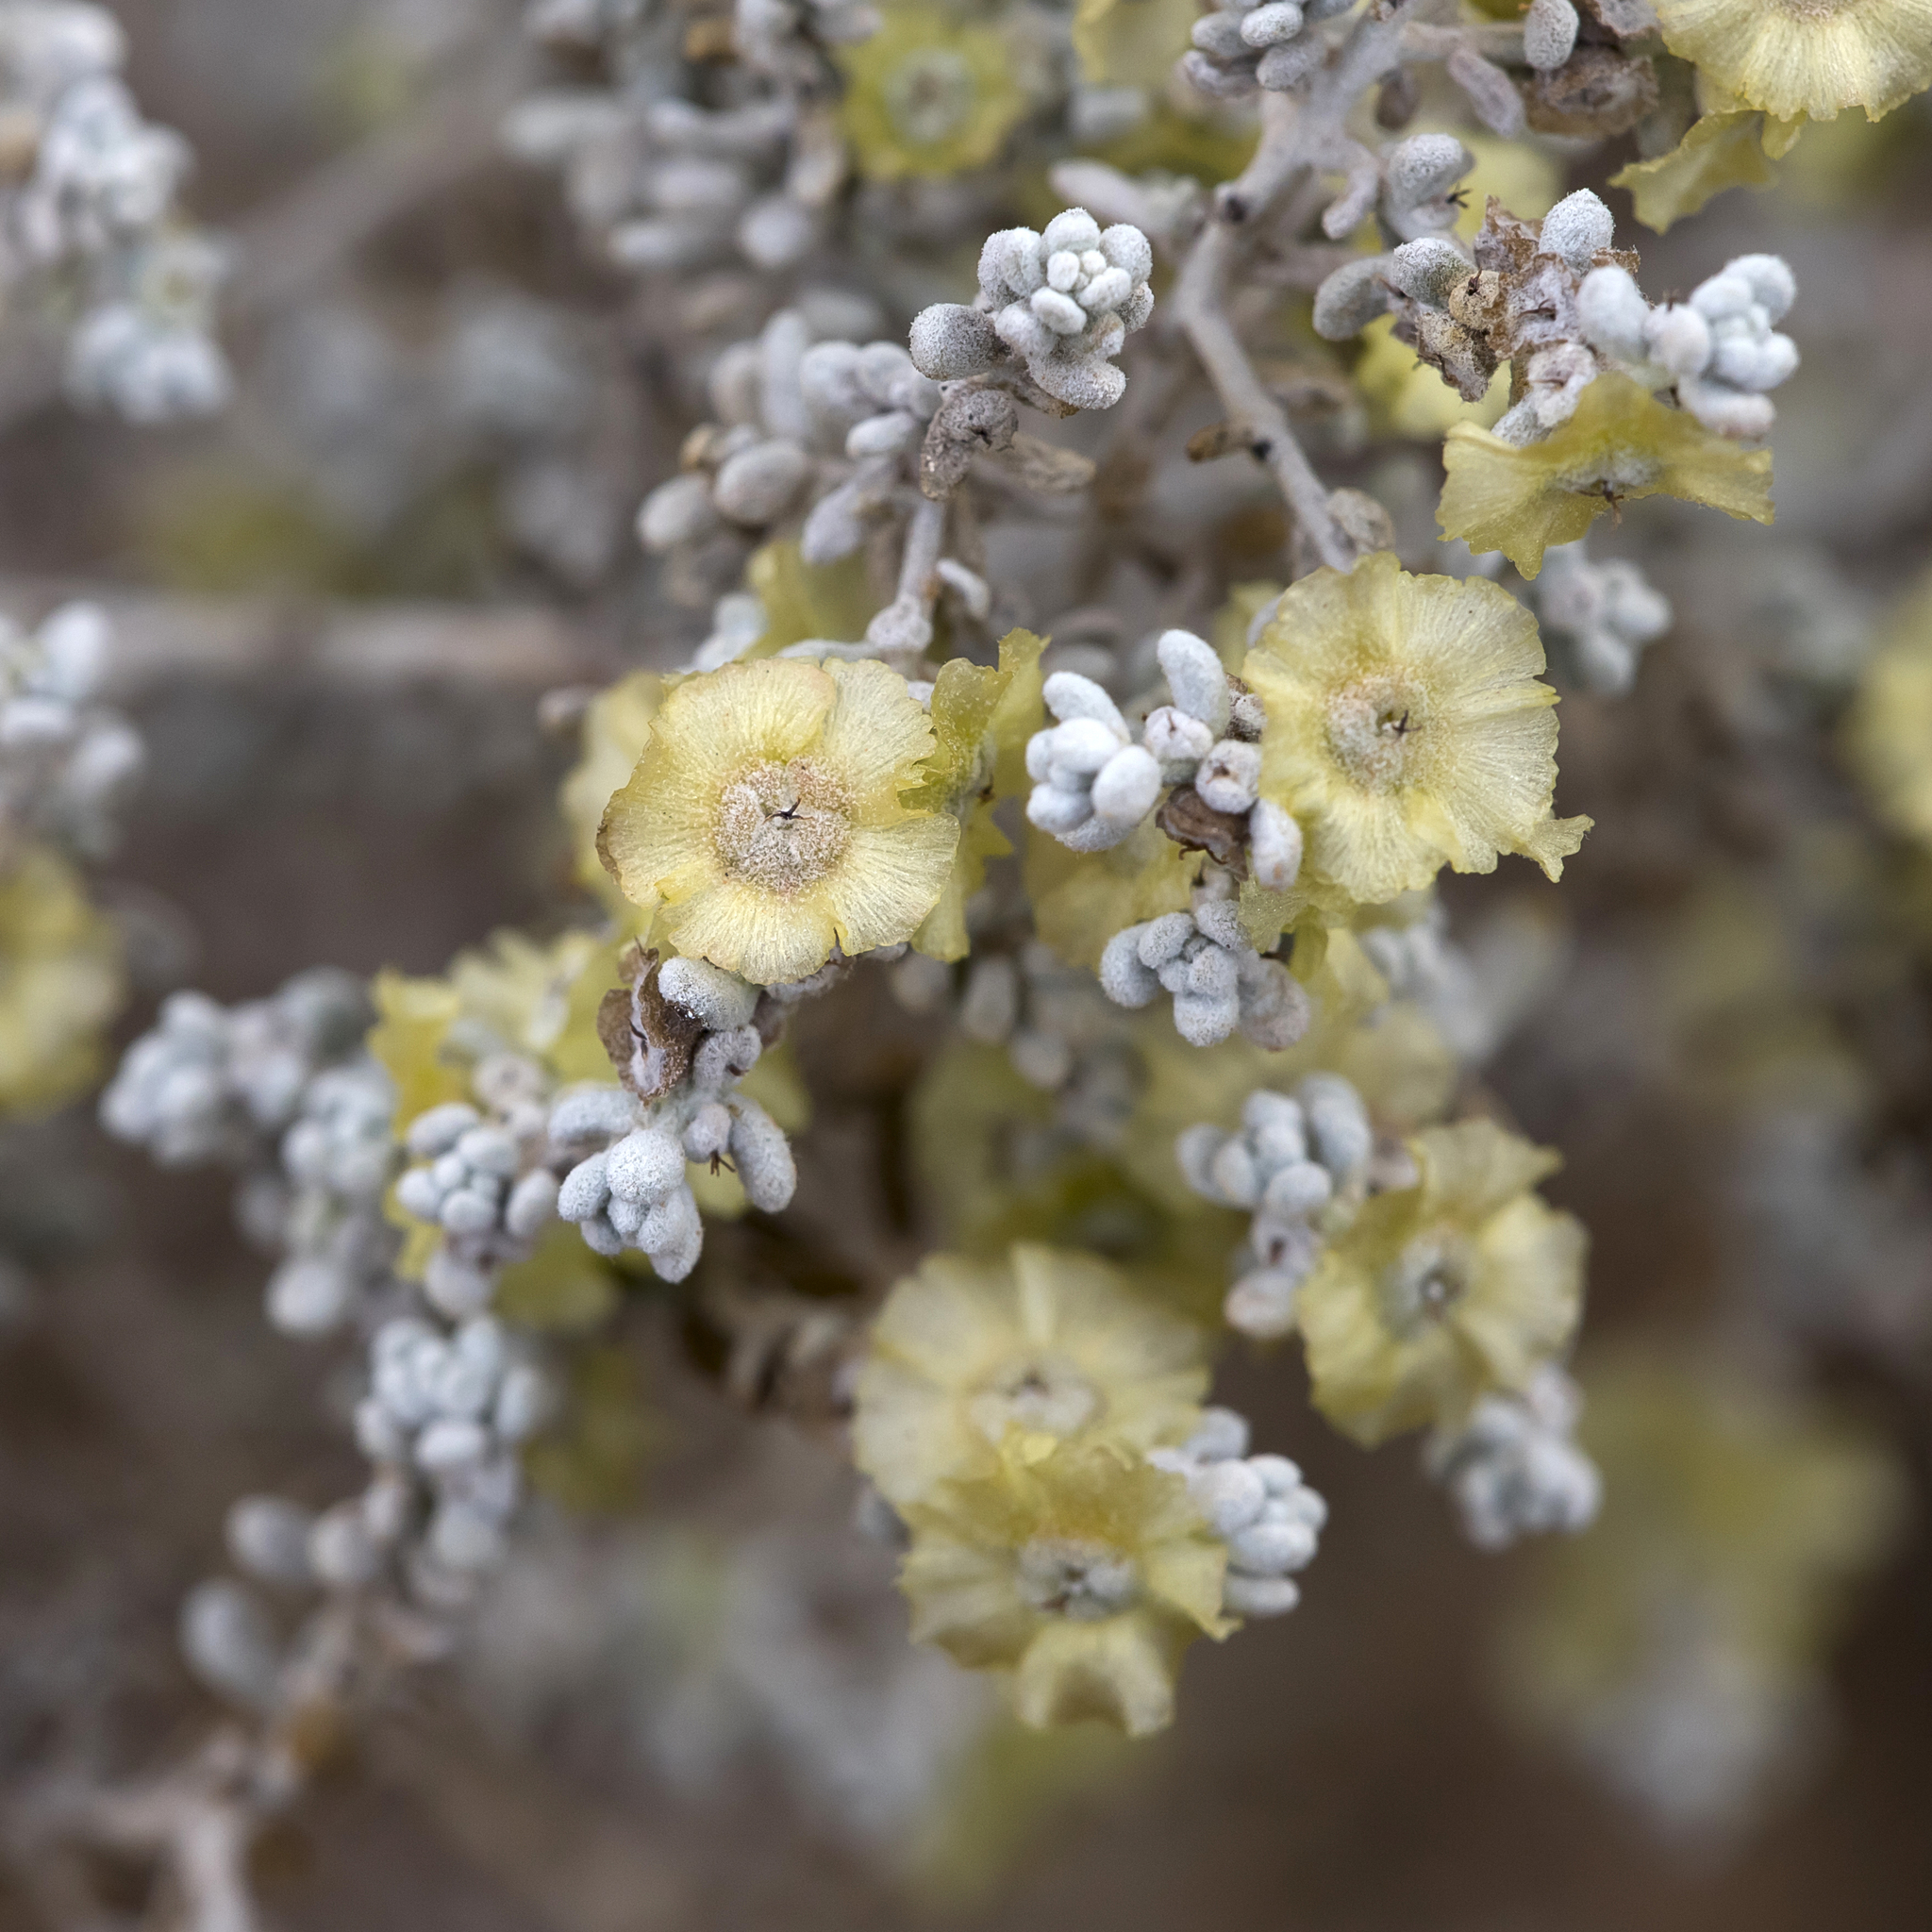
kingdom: Plantae
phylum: Tracheophyta
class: Magnoliopsida
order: Caryophyllales
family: Amaranthaceae
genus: Maireana
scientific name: Maireana sedifolia
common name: Hoary bluebush
